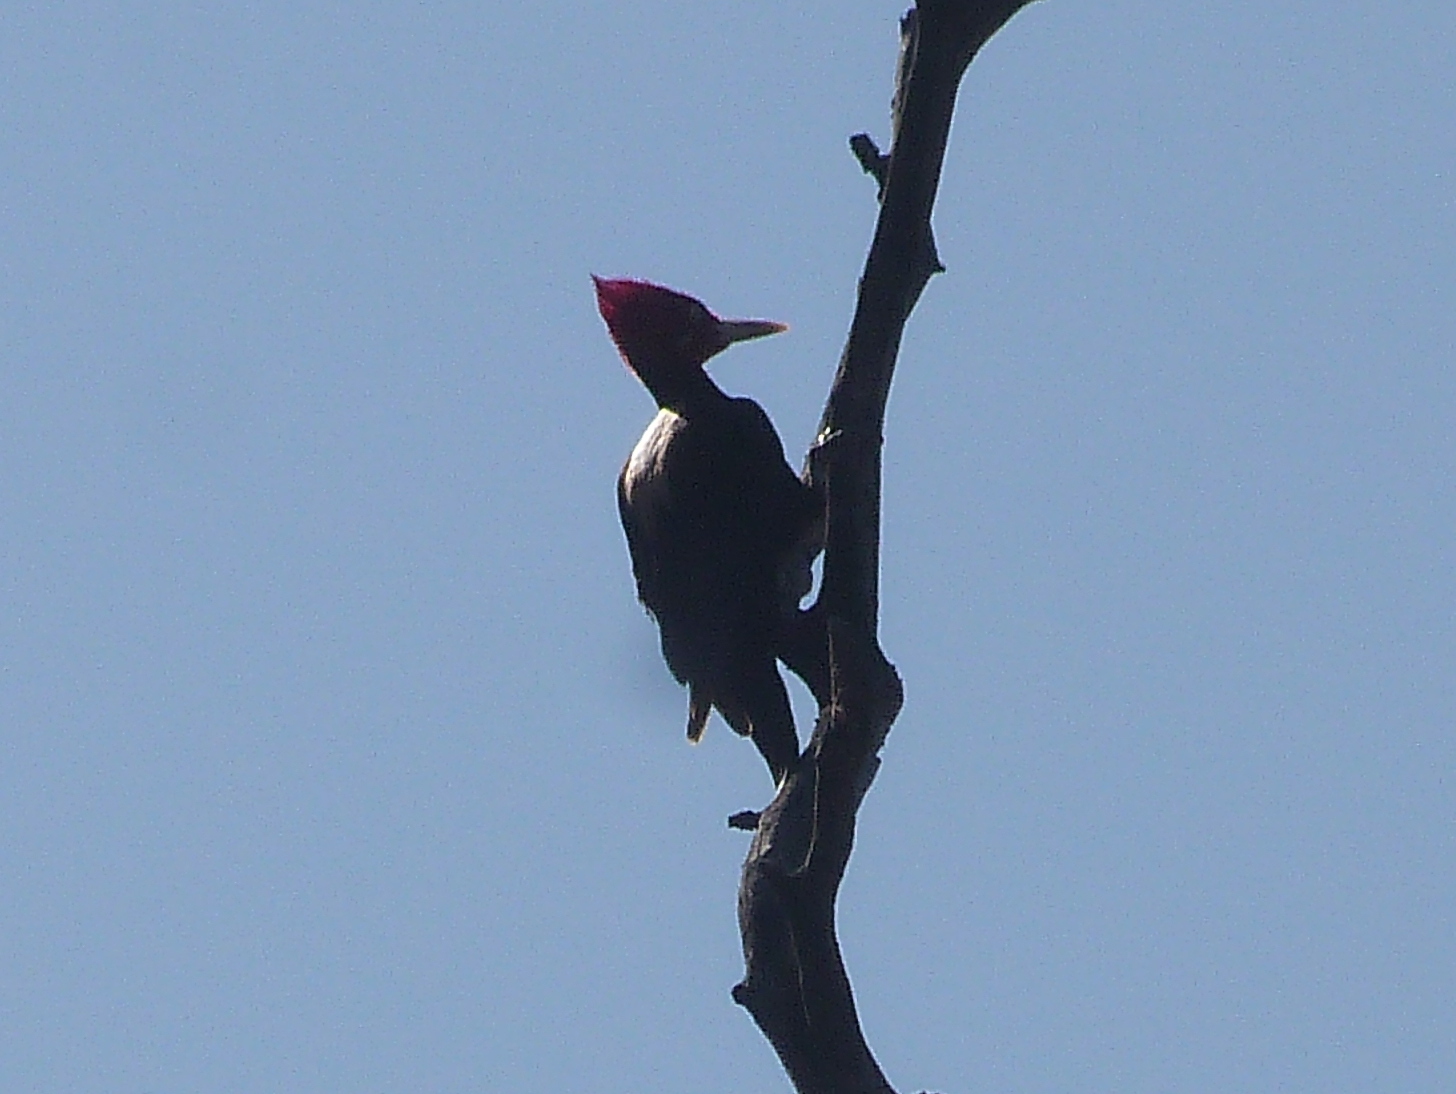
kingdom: Animalia
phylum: Chordata
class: Aves
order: Piciformes
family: Picidae
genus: Campephilus
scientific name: Campephilus leucopogon
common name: Cream-backed woodpecker
